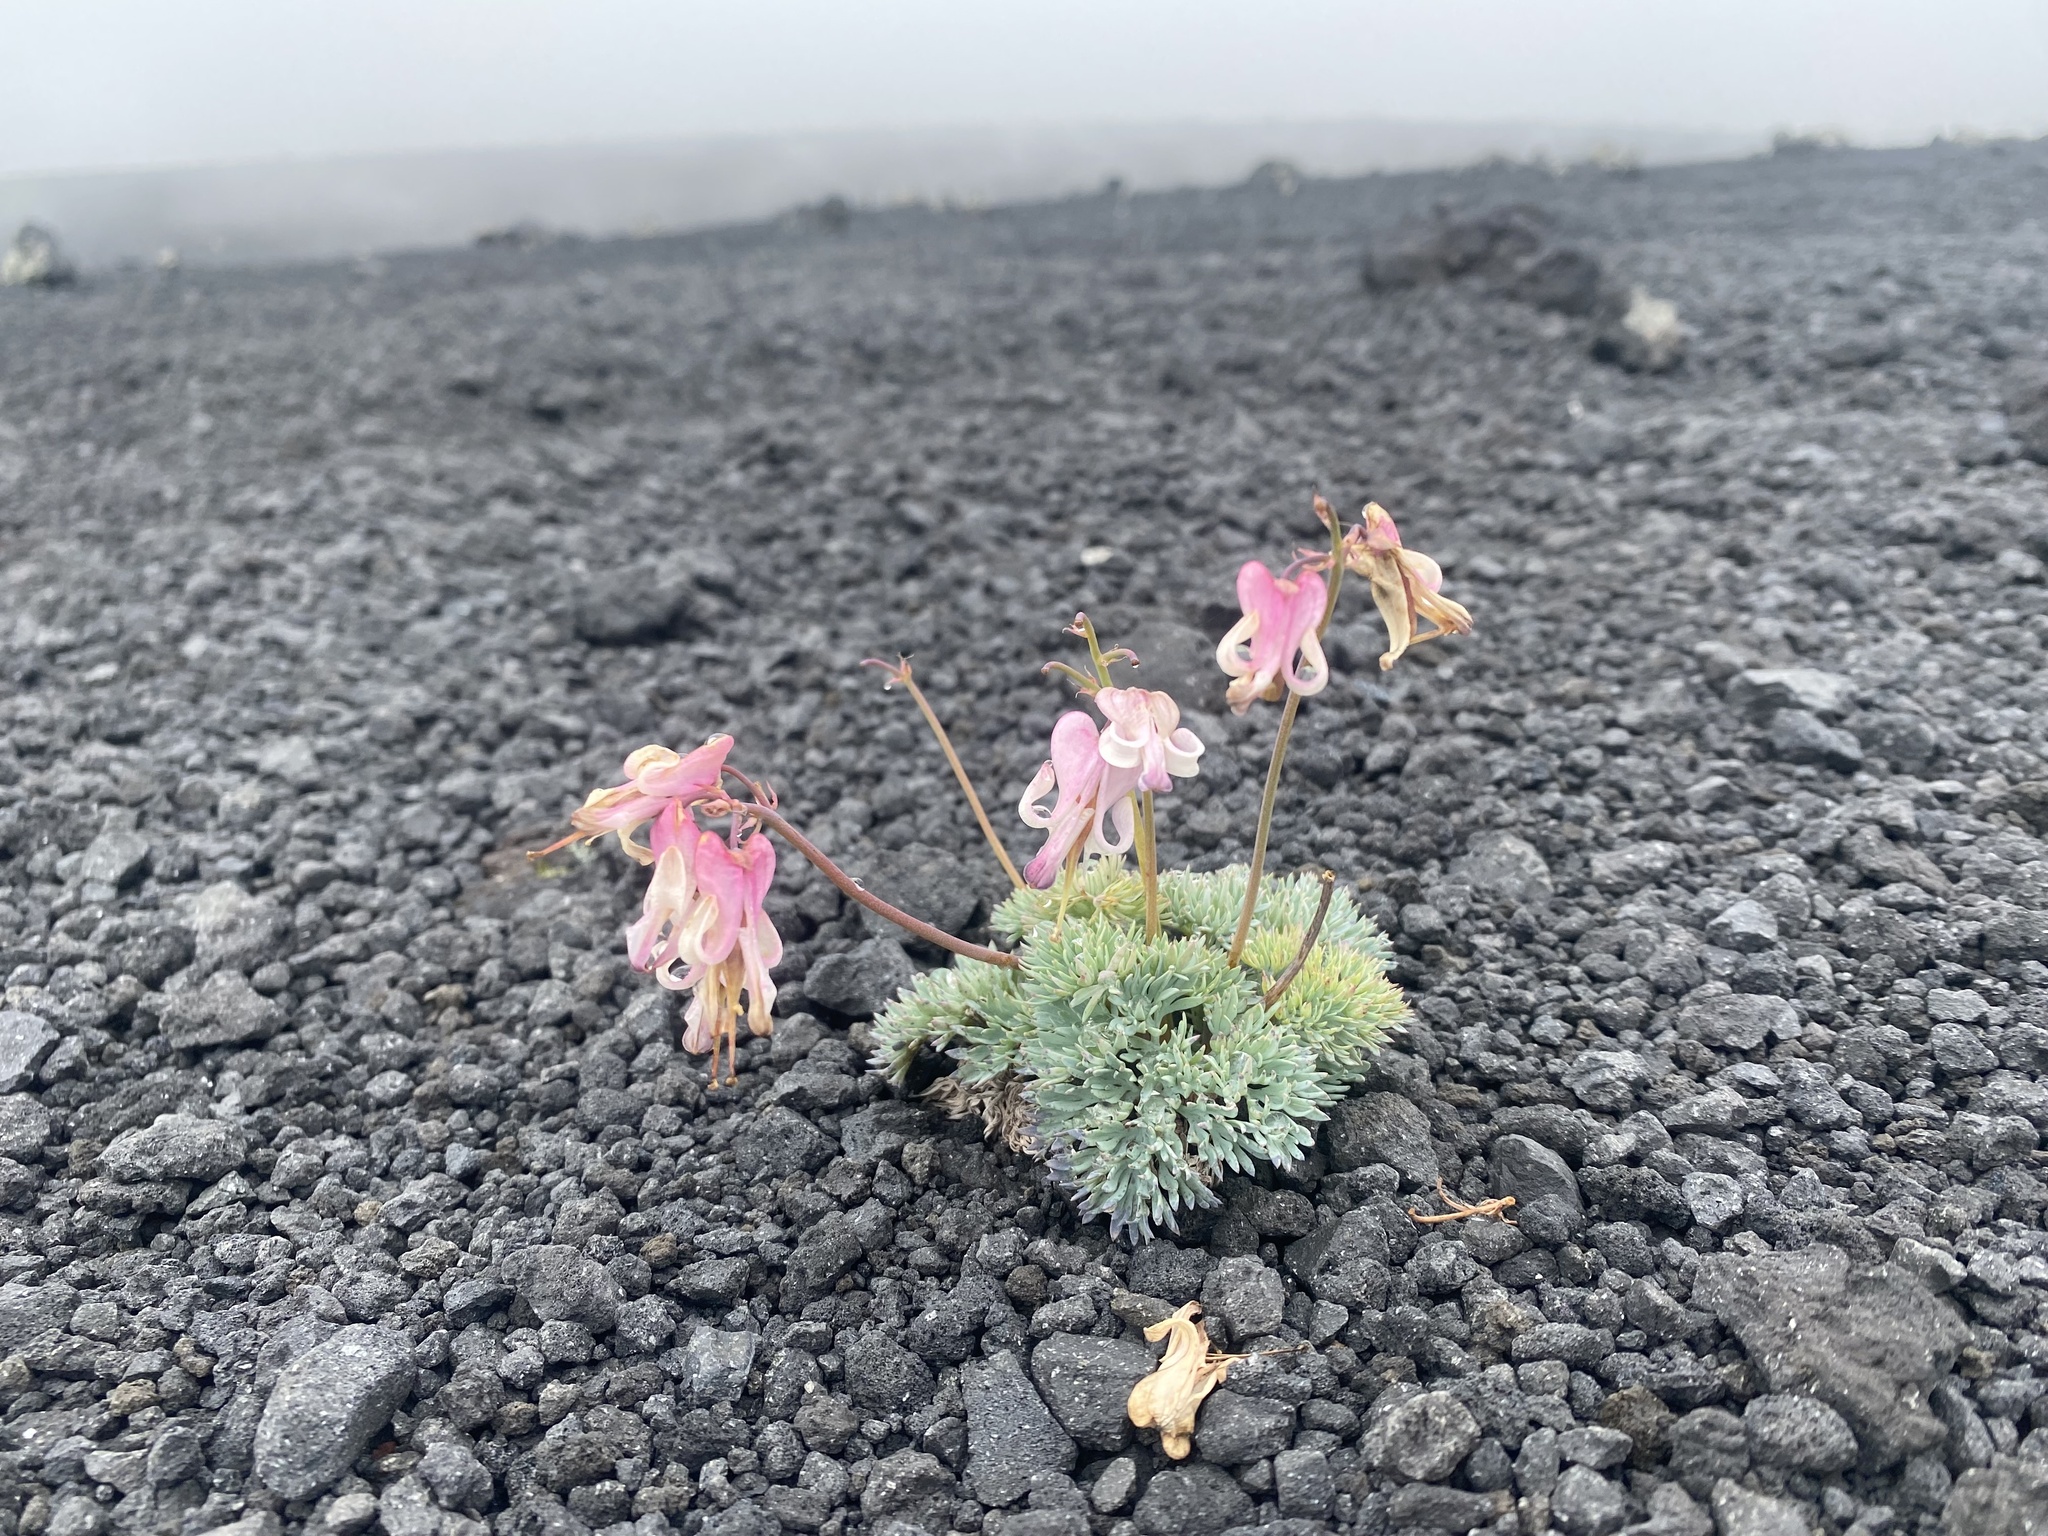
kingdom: Plantae
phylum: Tracheophyta
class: Magnoliopsida
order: Ranunculales
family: Papaveraceae
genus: Dicentra
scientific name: Dicentra peregrina
